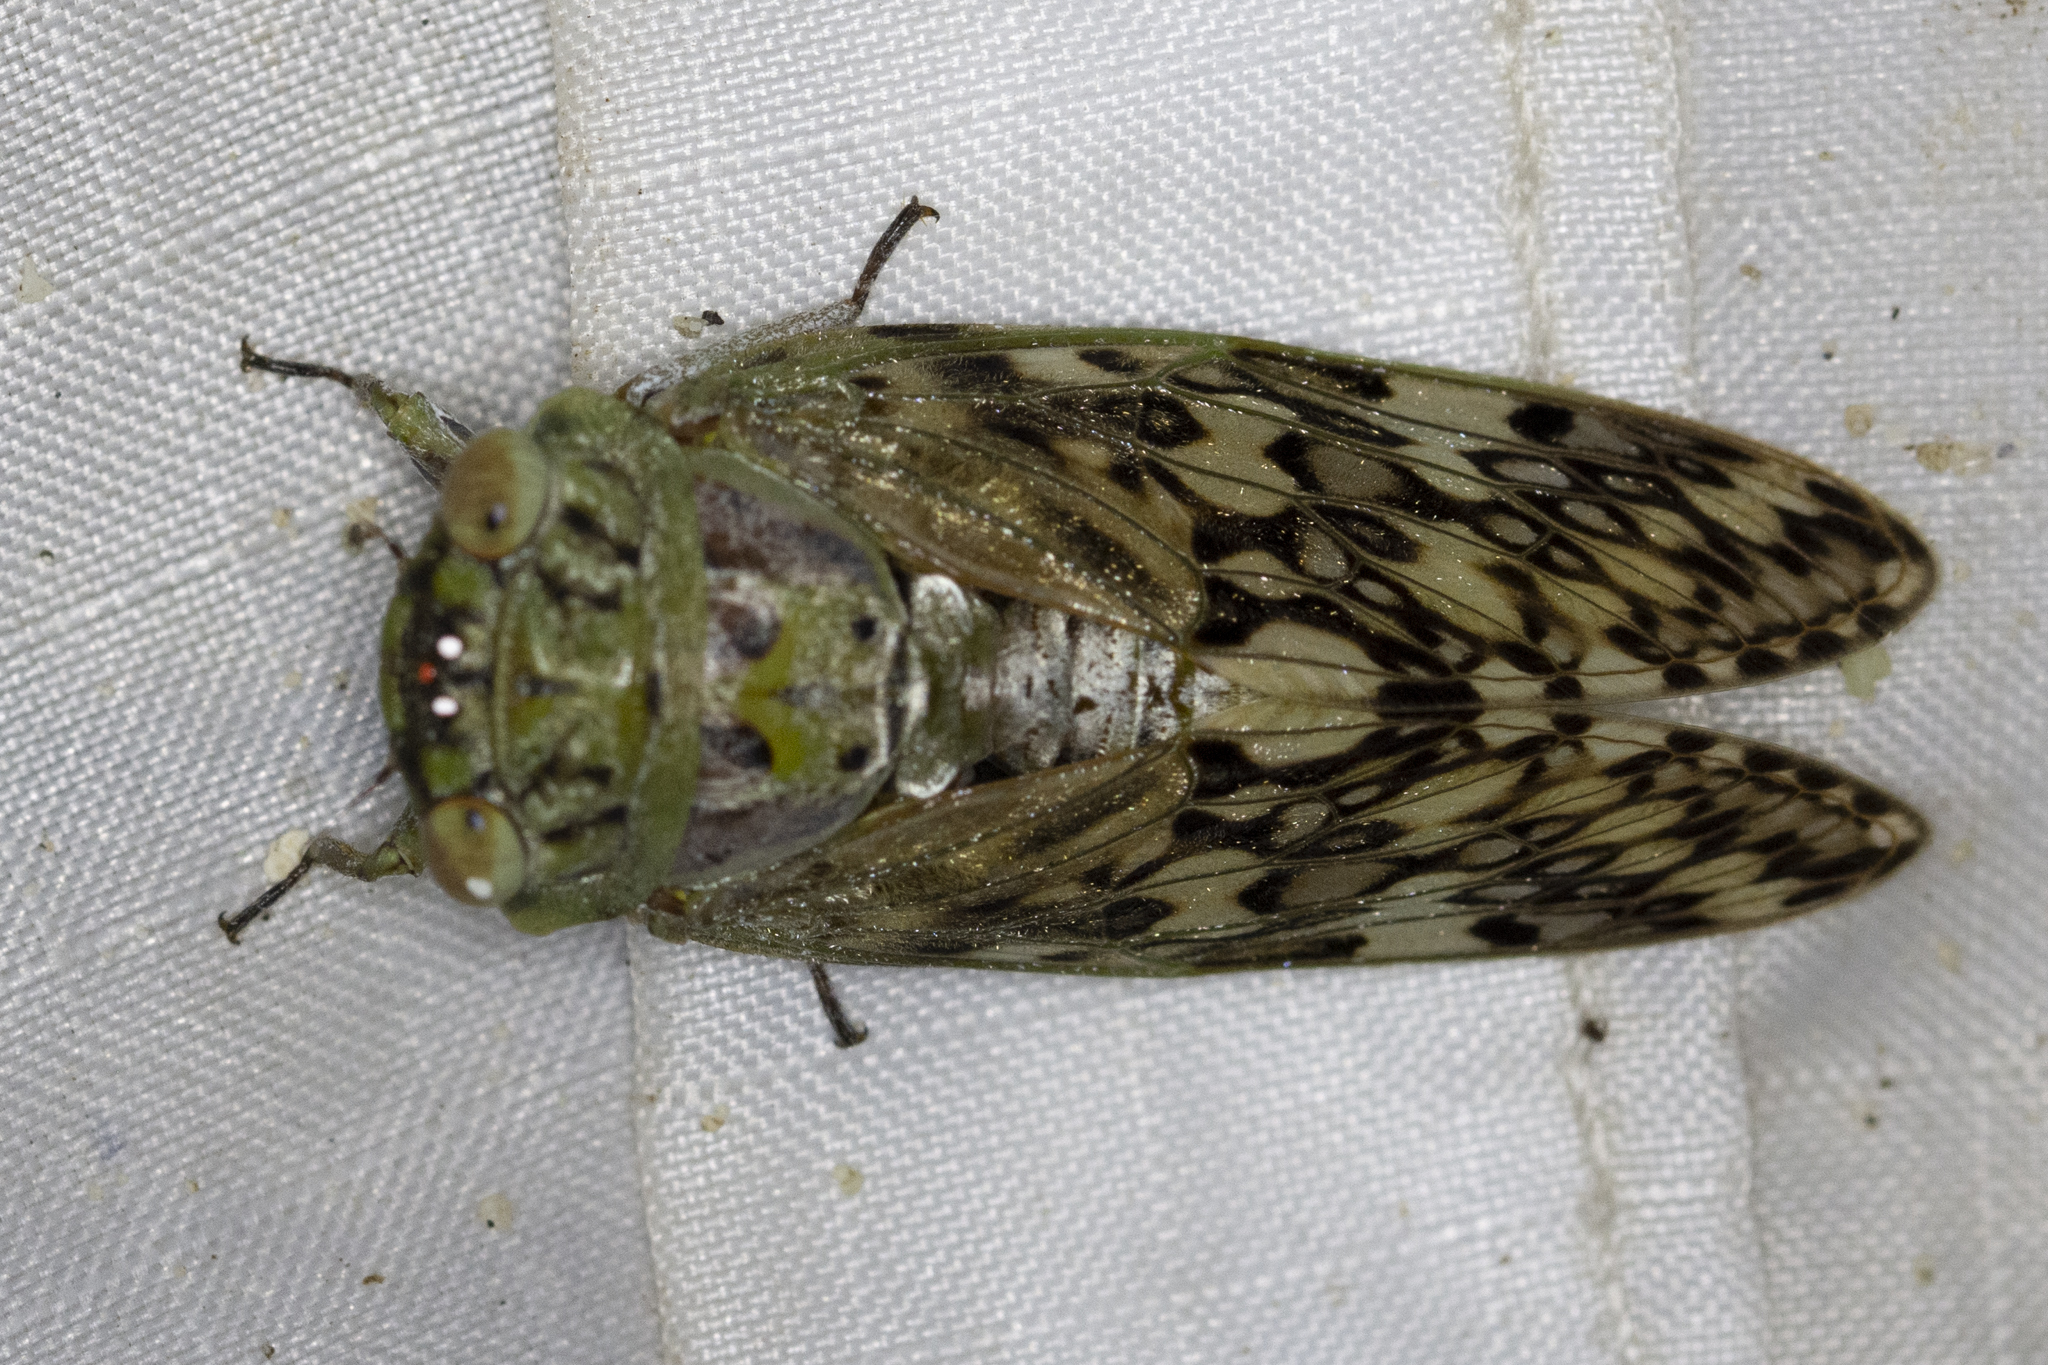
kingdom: Animalia
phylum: Arthropoda
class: Insecta
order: Hemiptera
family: Cicadidae
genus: Hamza
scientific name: Hamza ciliaris
